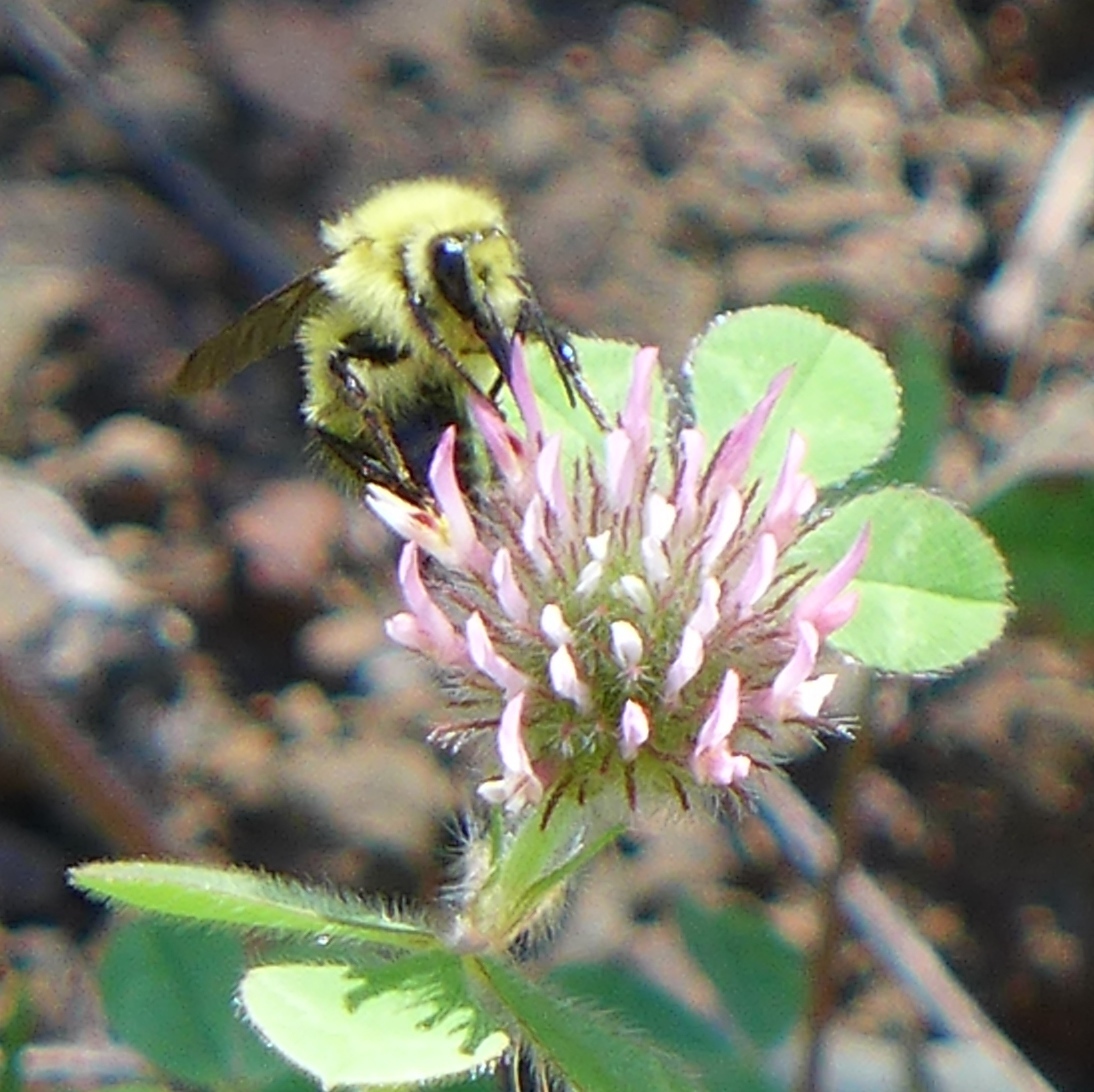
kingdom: Animalia
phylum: Arthropoda
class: Insecta
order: Hymenoptera
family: Apidae
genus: Bombus
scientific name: Bombus vandykei
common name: Van dyke bumble bee
